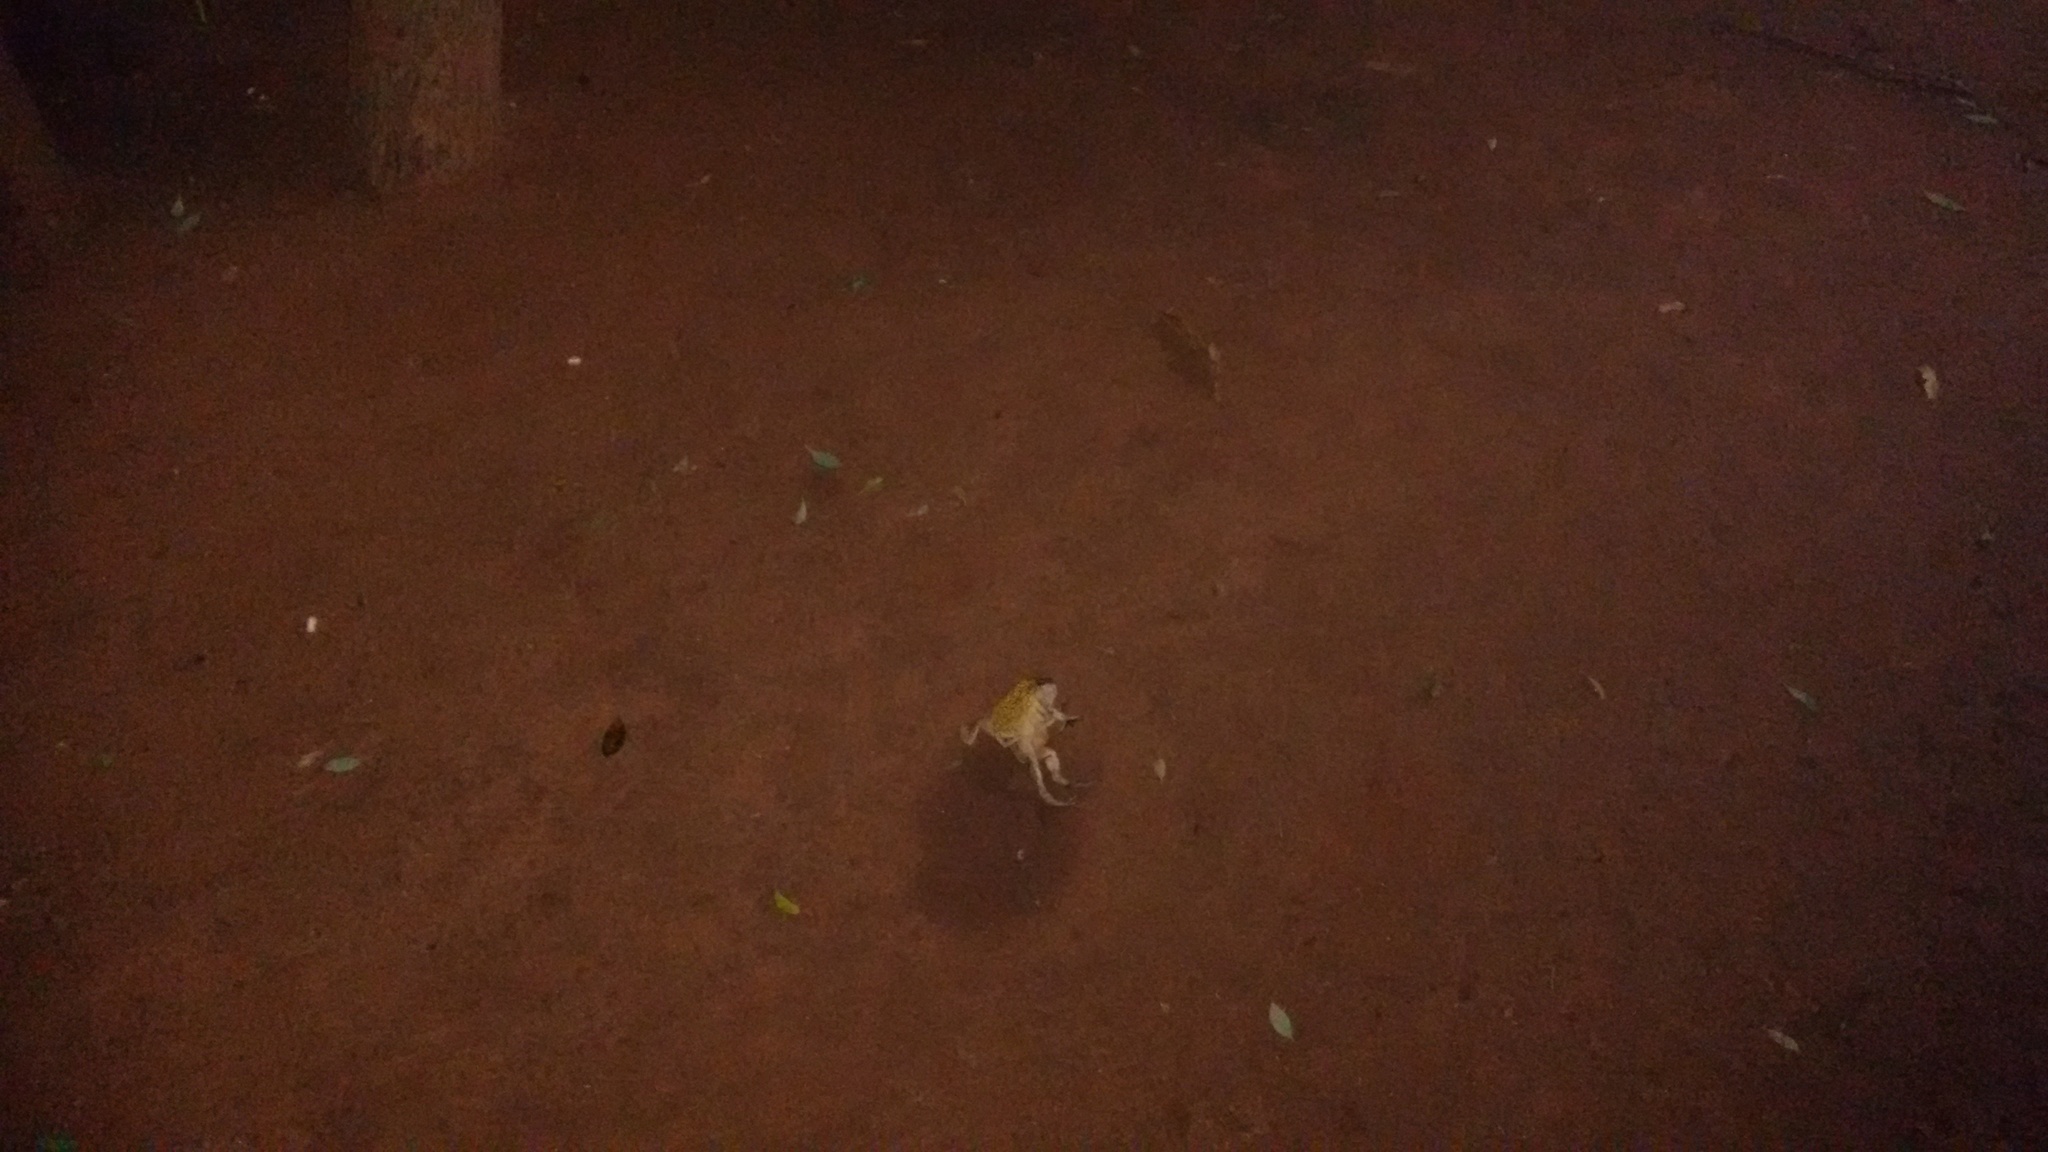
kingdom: Animalia
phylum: Chordata
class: Amphibia
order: Anura
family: Bufonidae
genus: Duttaphrynus
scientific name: Duttaphrynus melanostictus
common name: Common sunda toad
